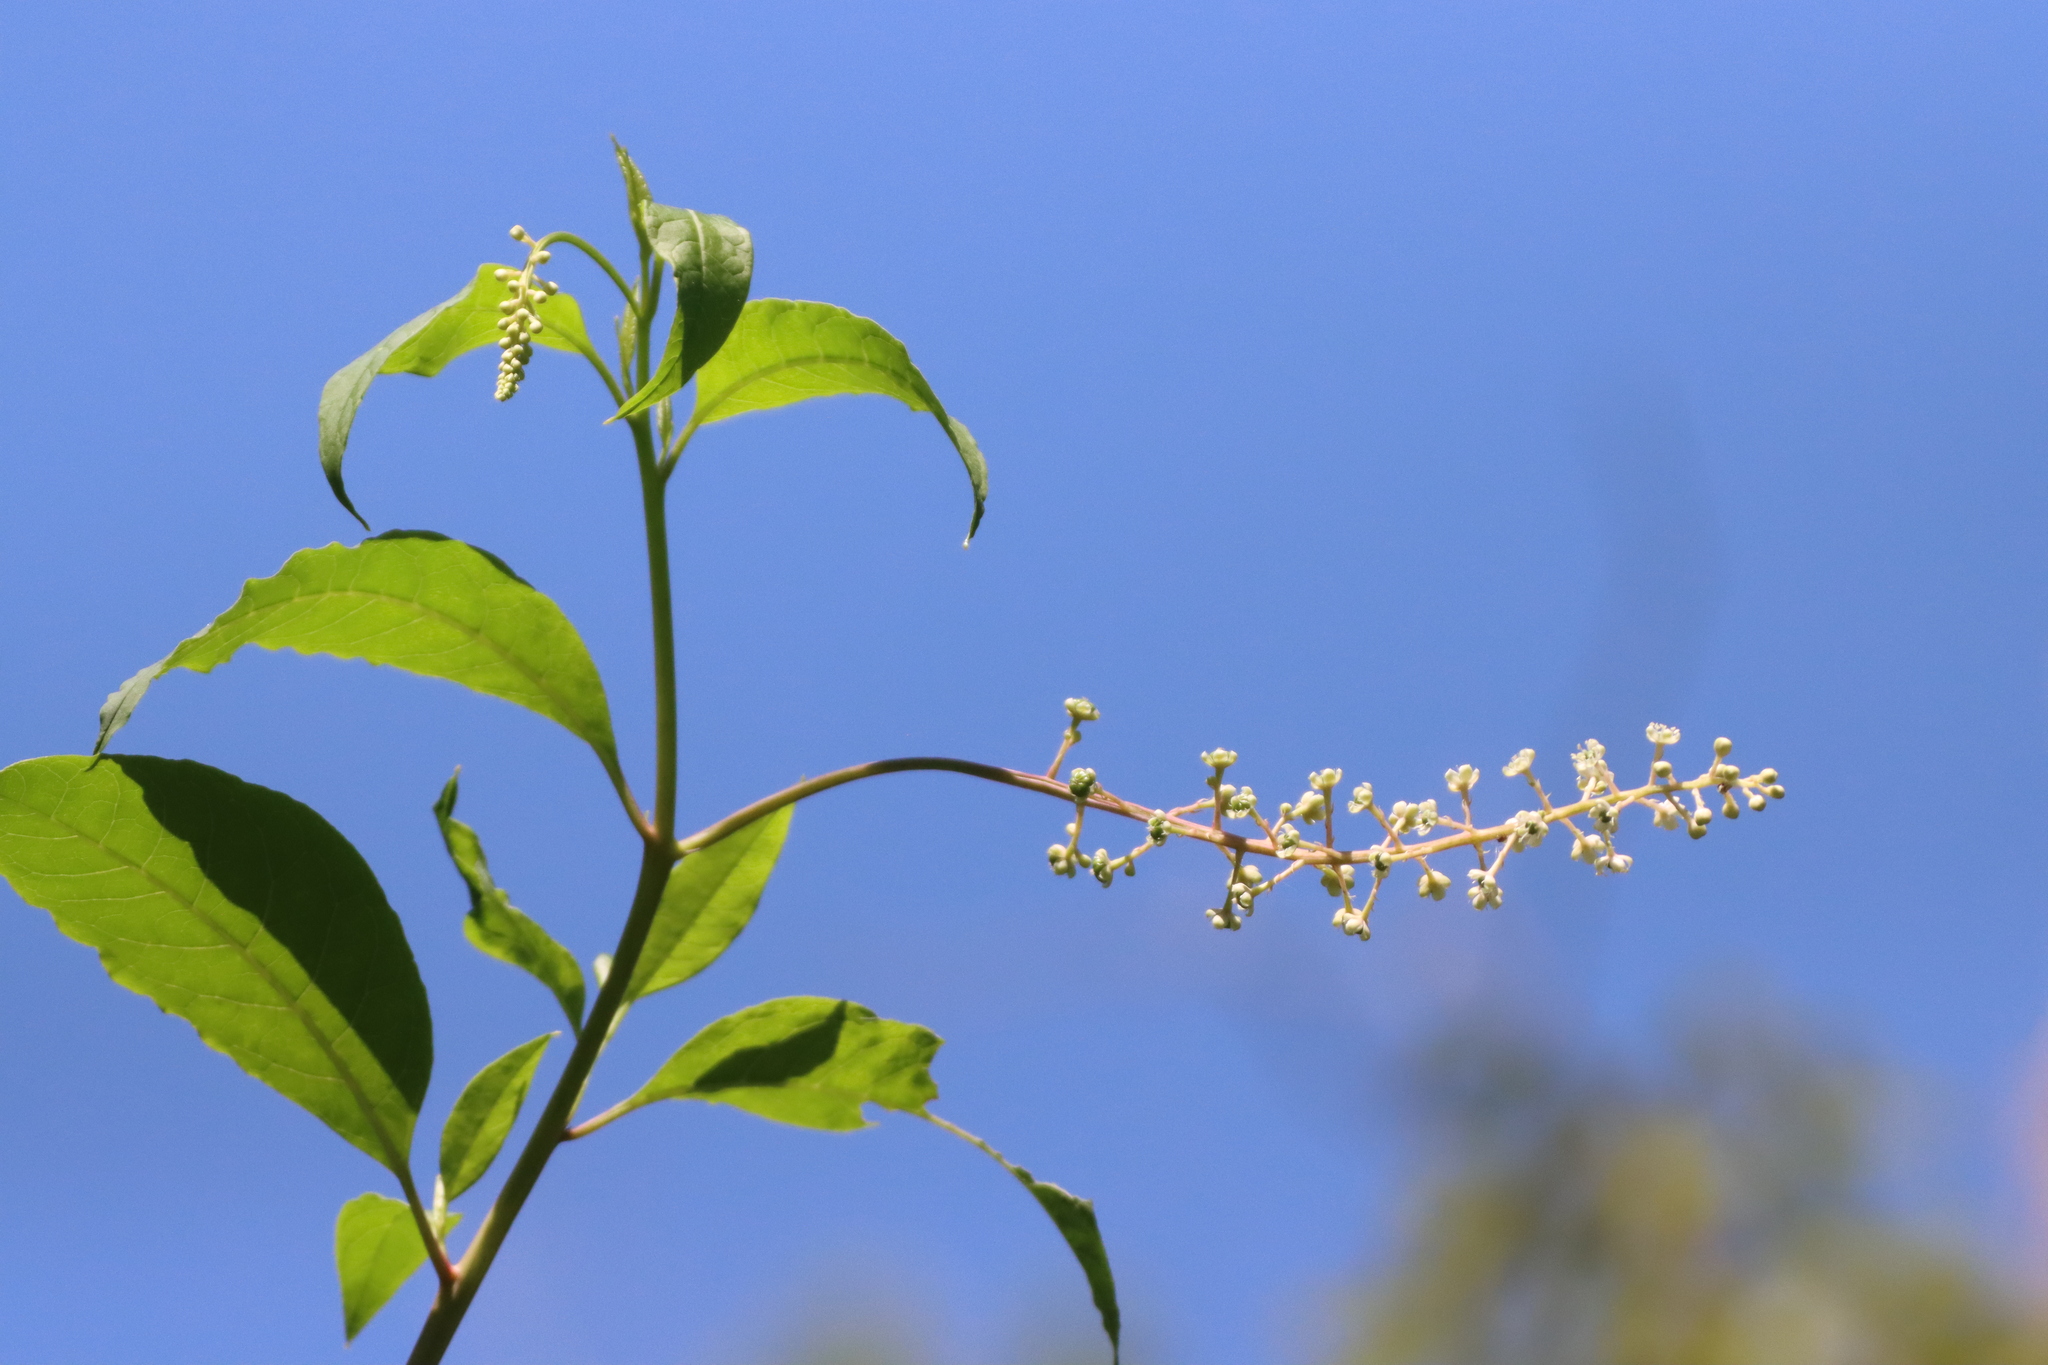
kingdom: Plantae
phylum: Tracheophyta
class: Magnoliopsida
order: Caryophyllales
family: Phytolaccaceae
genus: Phytolacca
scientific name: Phytolacca americana
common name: American pokeweed
